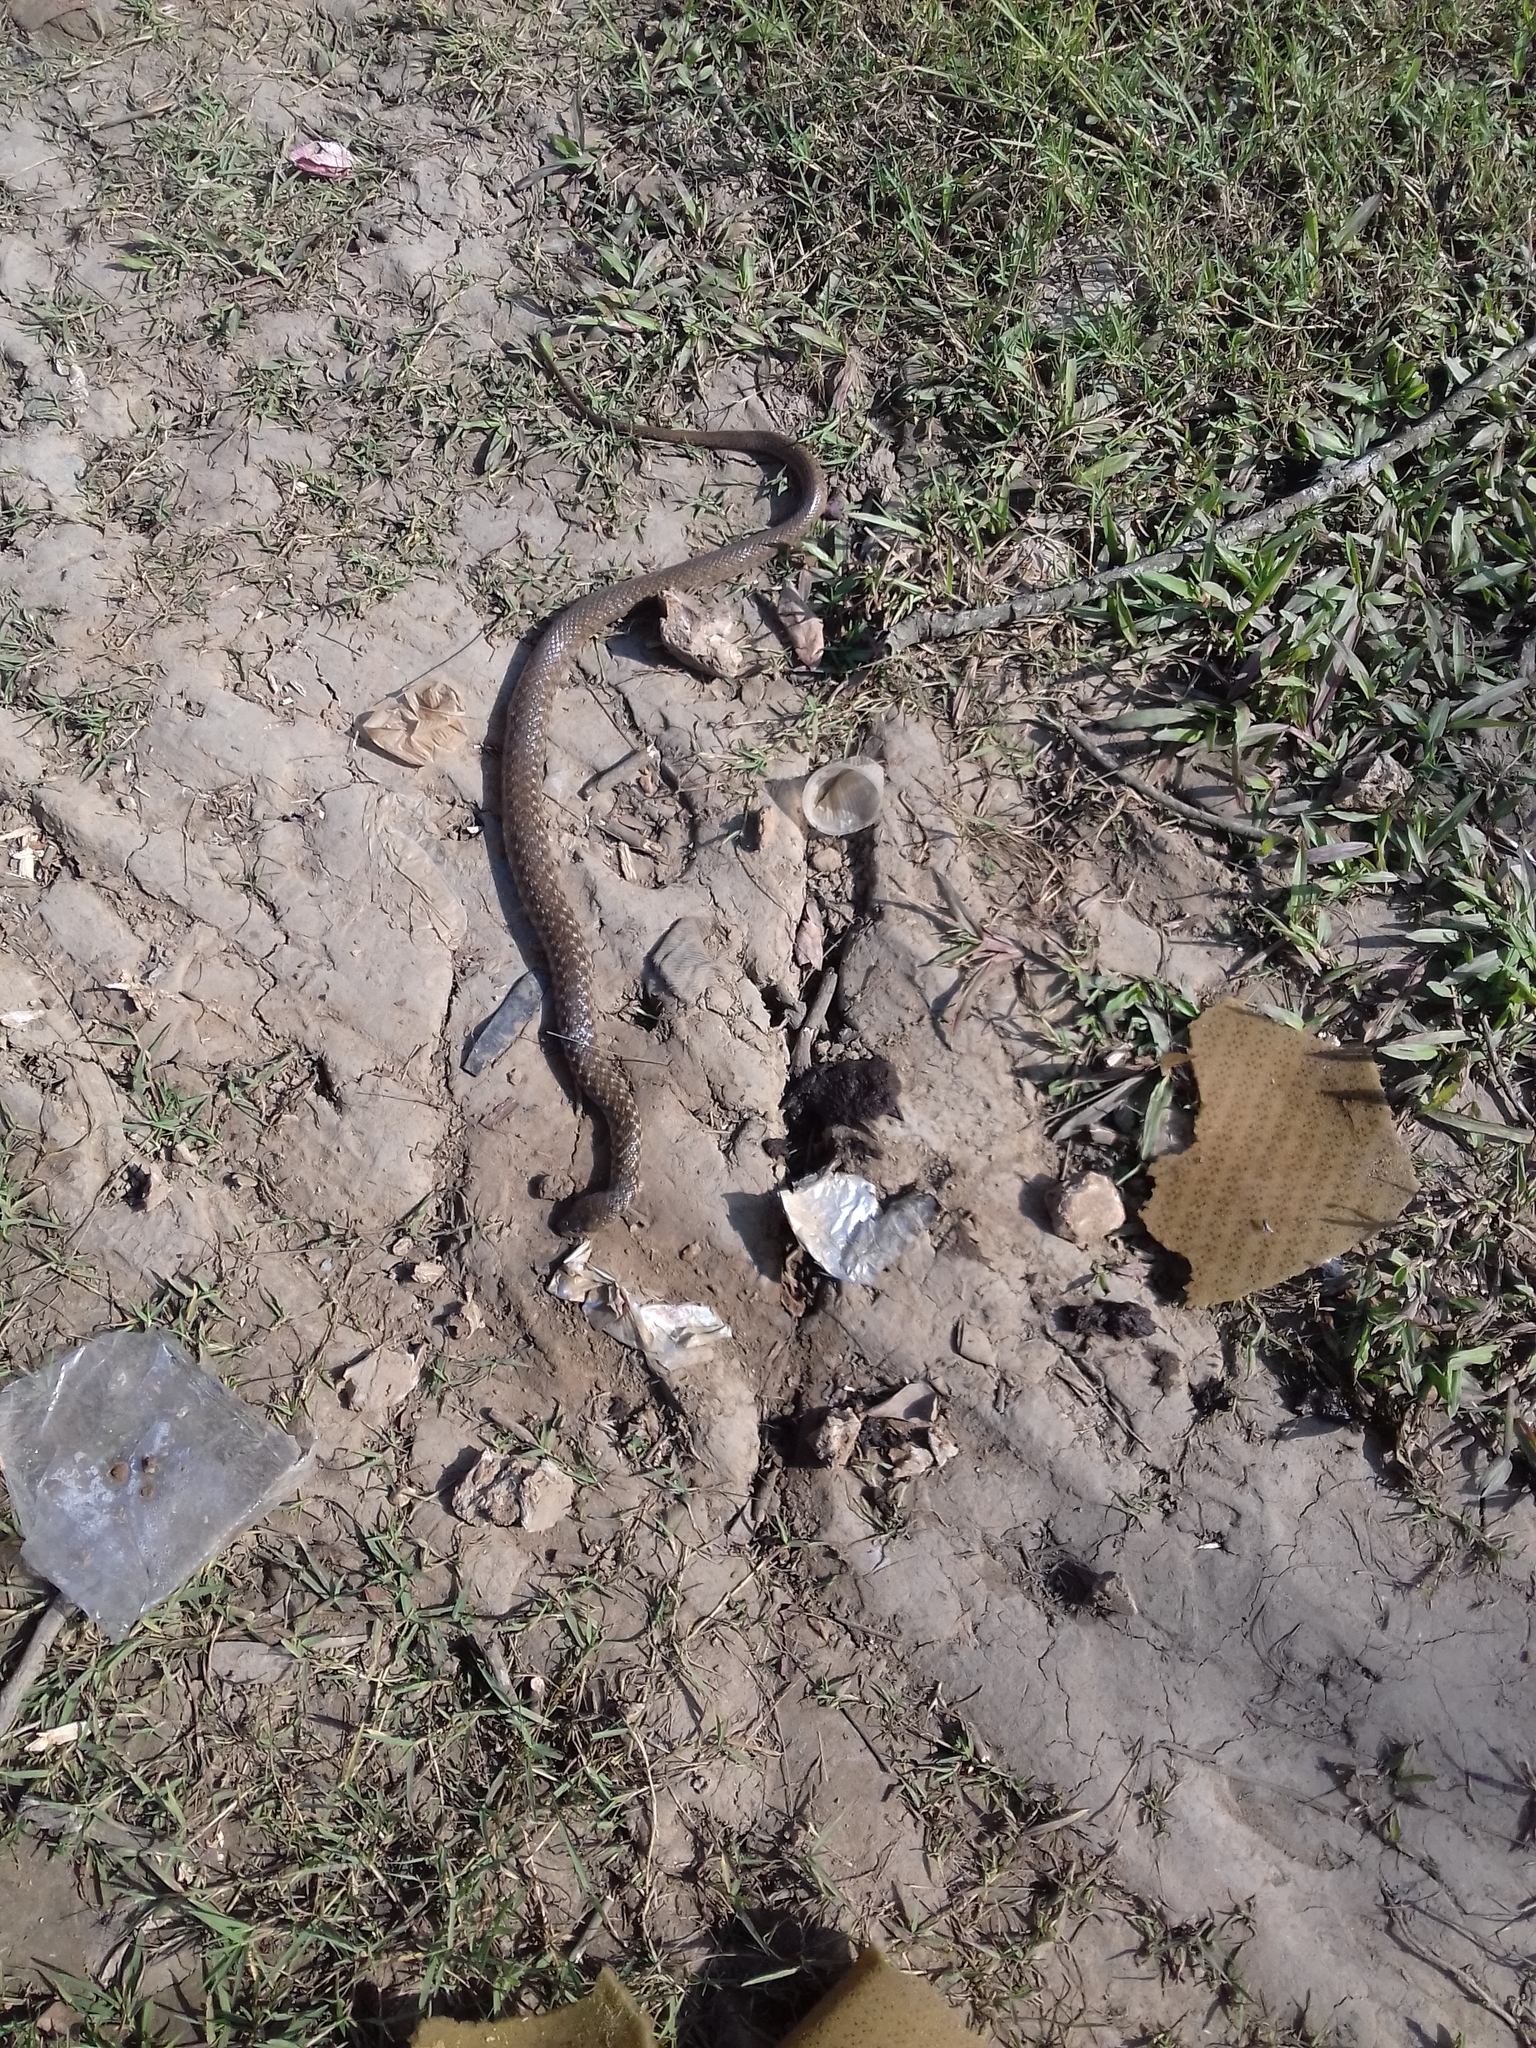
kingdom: Animalia
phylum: Chordata
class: Squamata
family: Colubridae
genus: Fowlea
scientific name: Fowlea piscator
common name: Asiatic water snake
